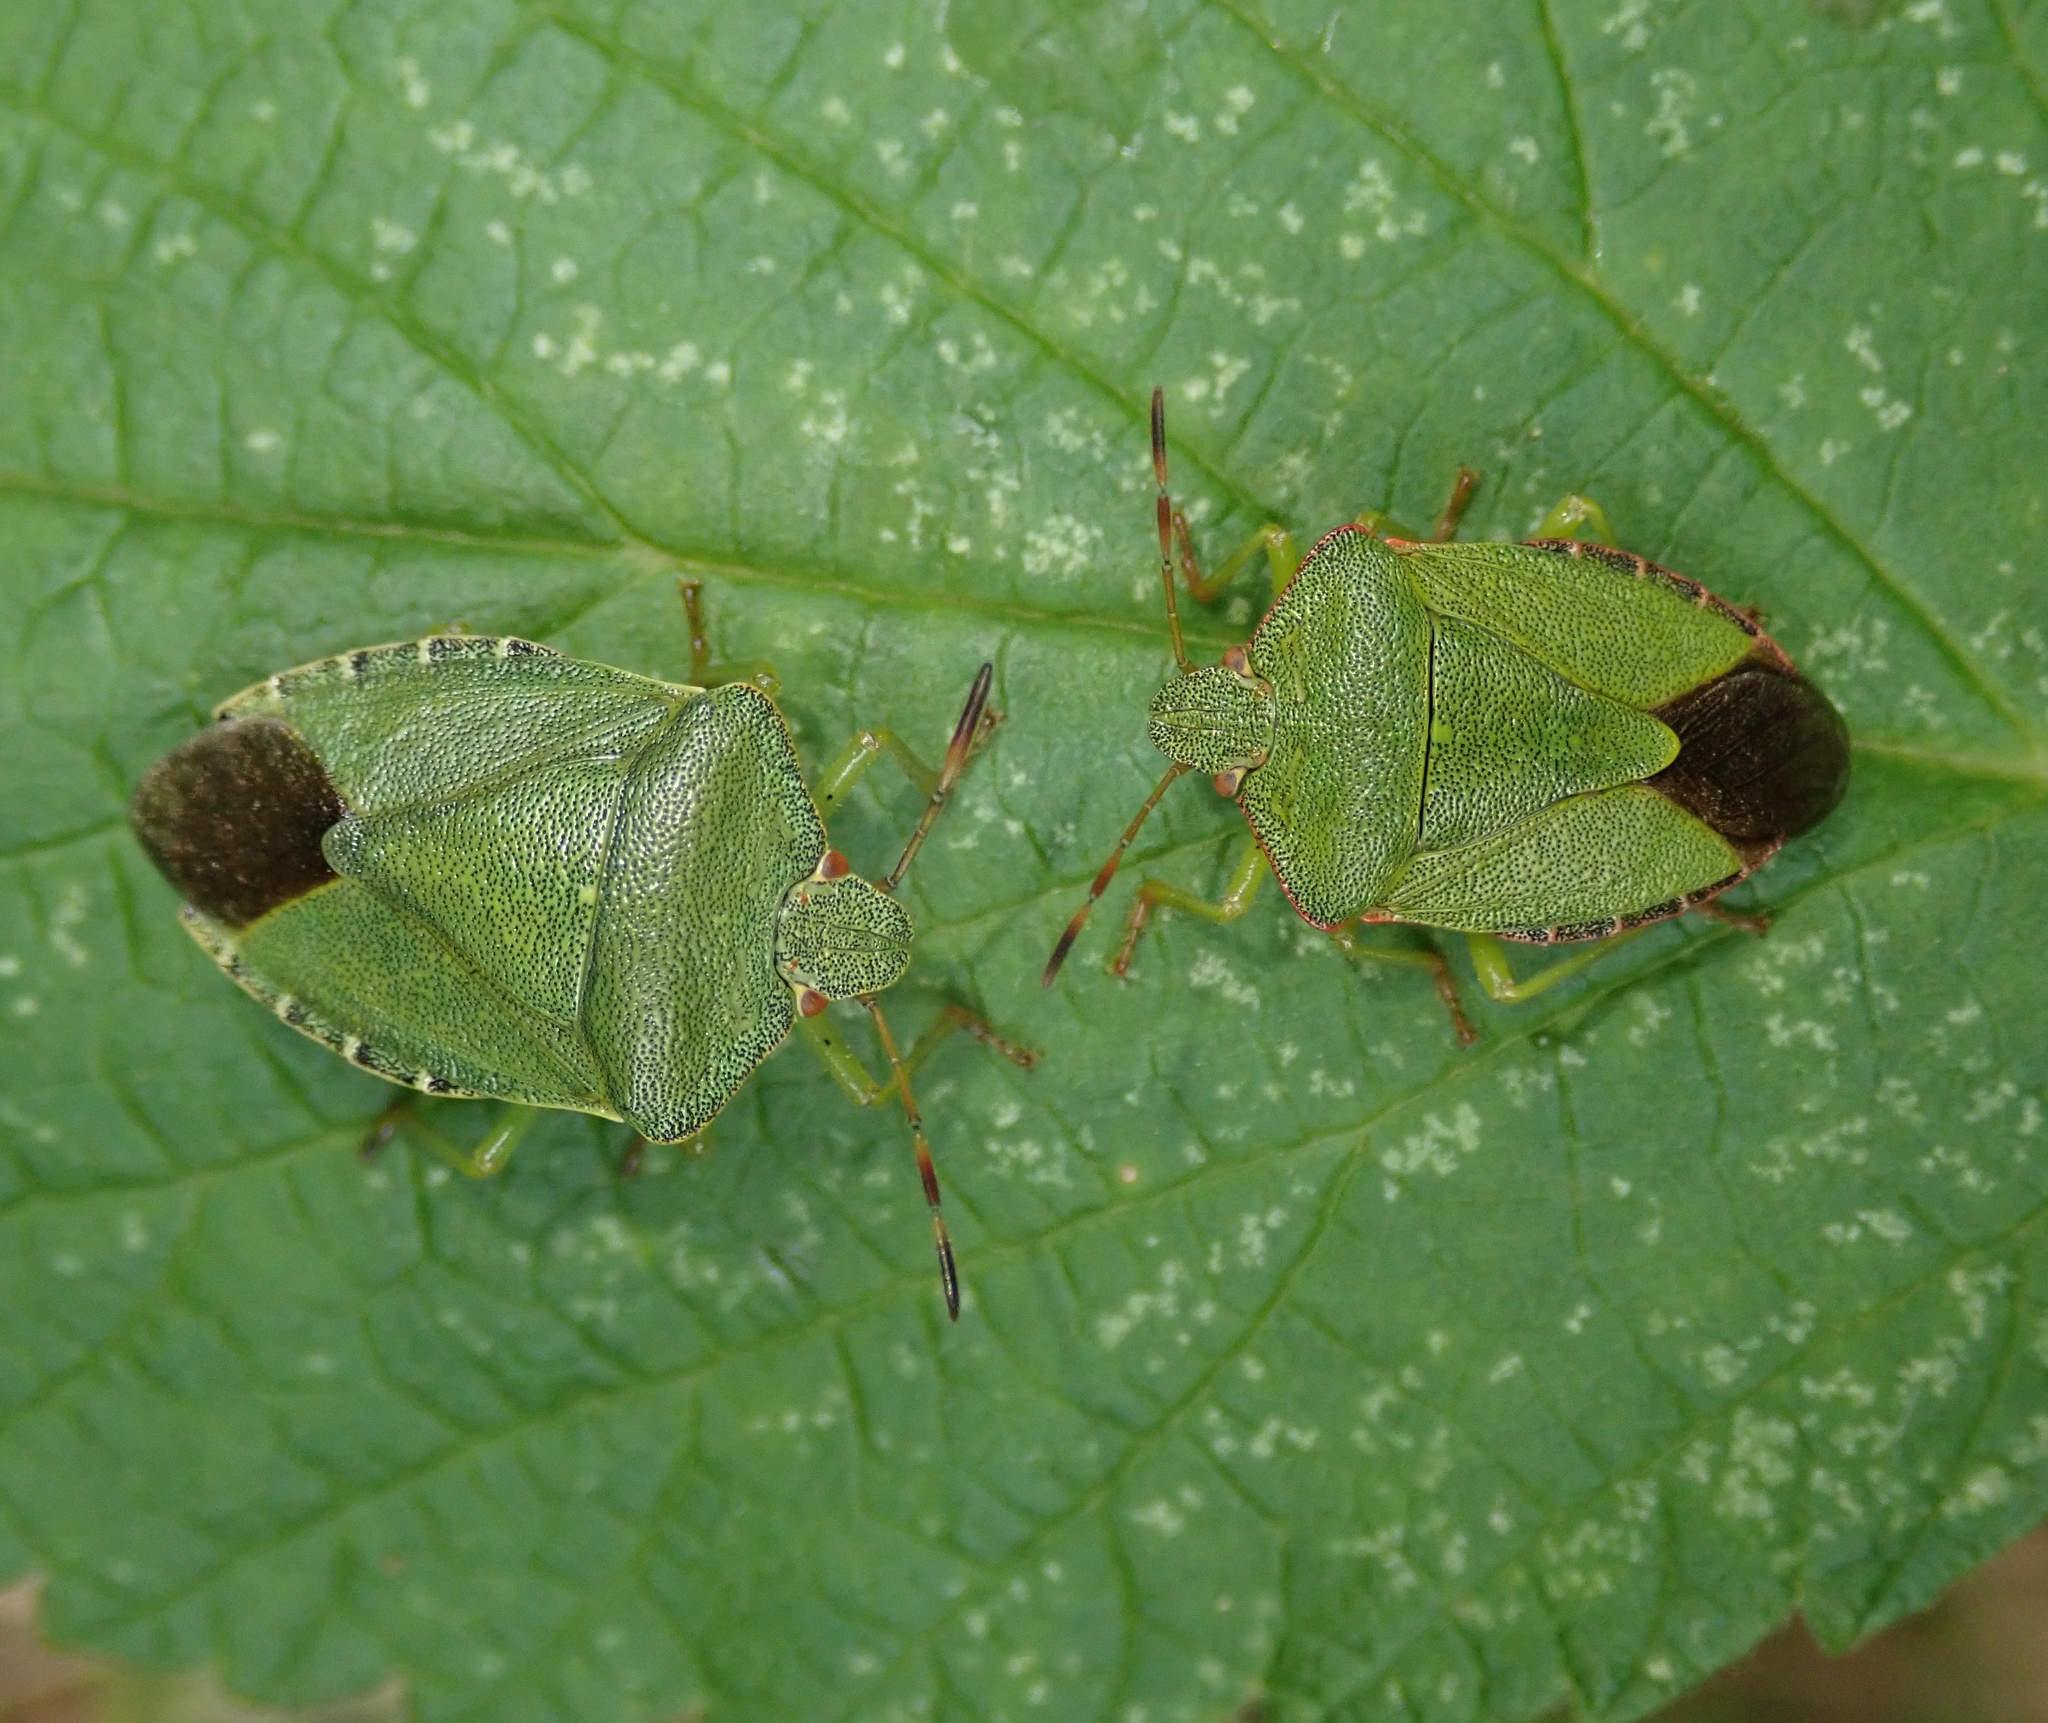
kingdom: Animalia
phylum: Arthropoda
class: Insecta
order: Hemiptera
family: Pentatomidae
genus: Palomena
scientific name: Palomena prasina
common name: Green shieldbug
